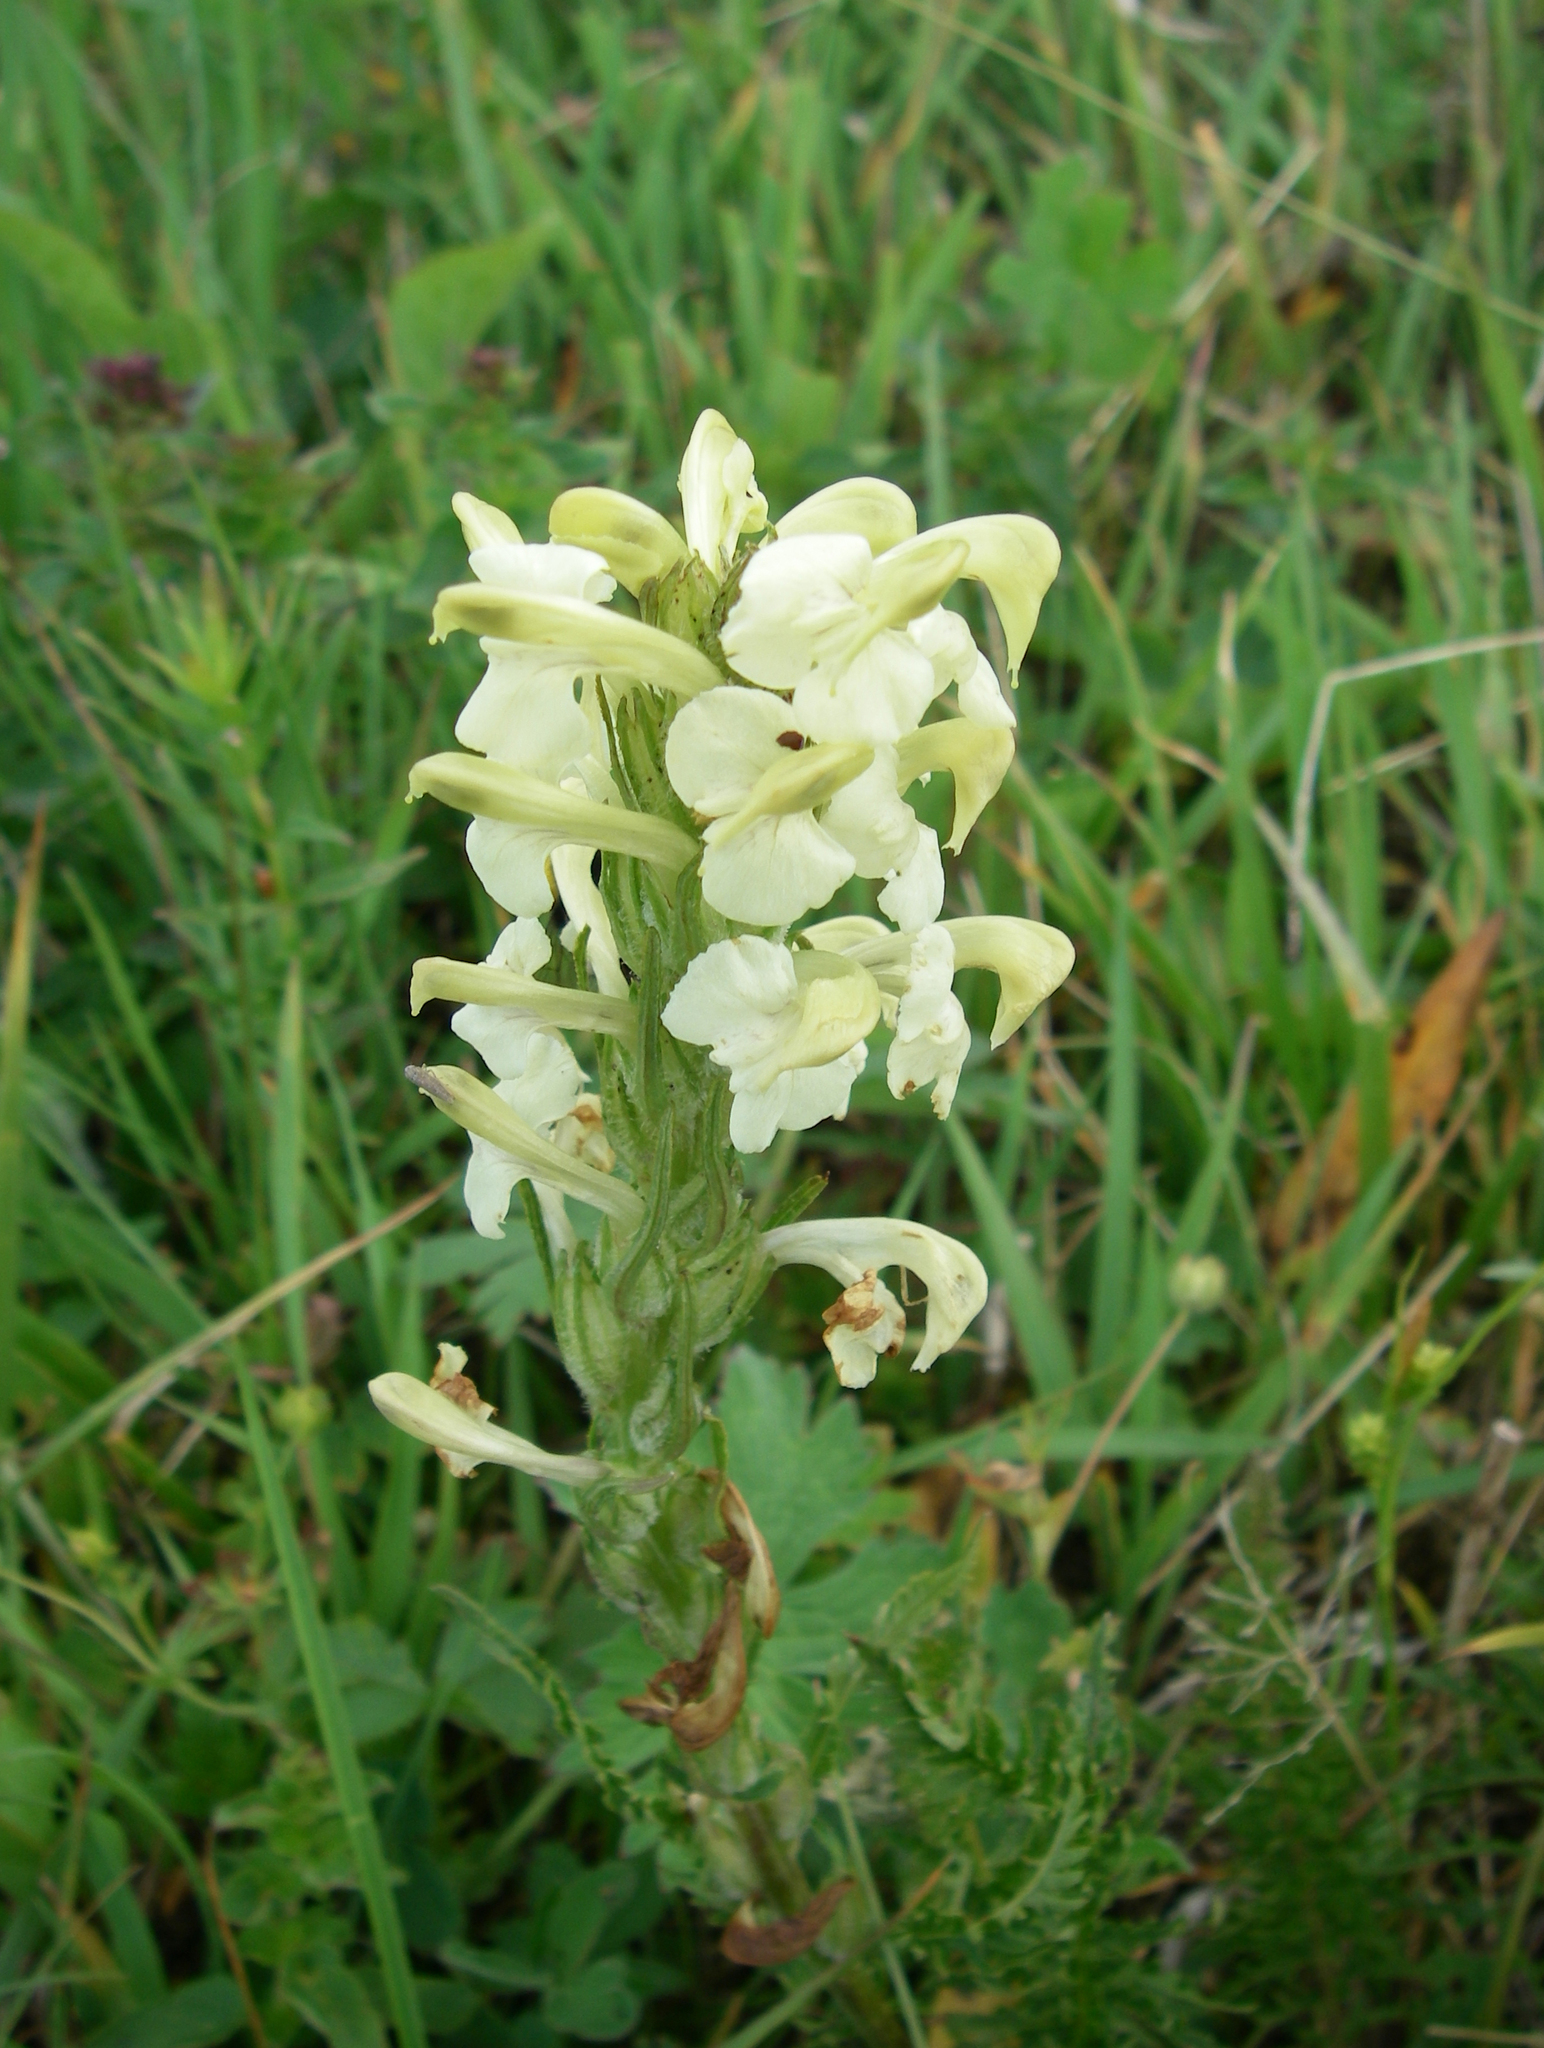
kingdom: Plantae
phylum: Tracheophyta
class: Magnoliopsida
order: Lamiales
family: Orobanchaceae
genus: Pedicularis
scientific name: Pedicularis dolichorrhiza
